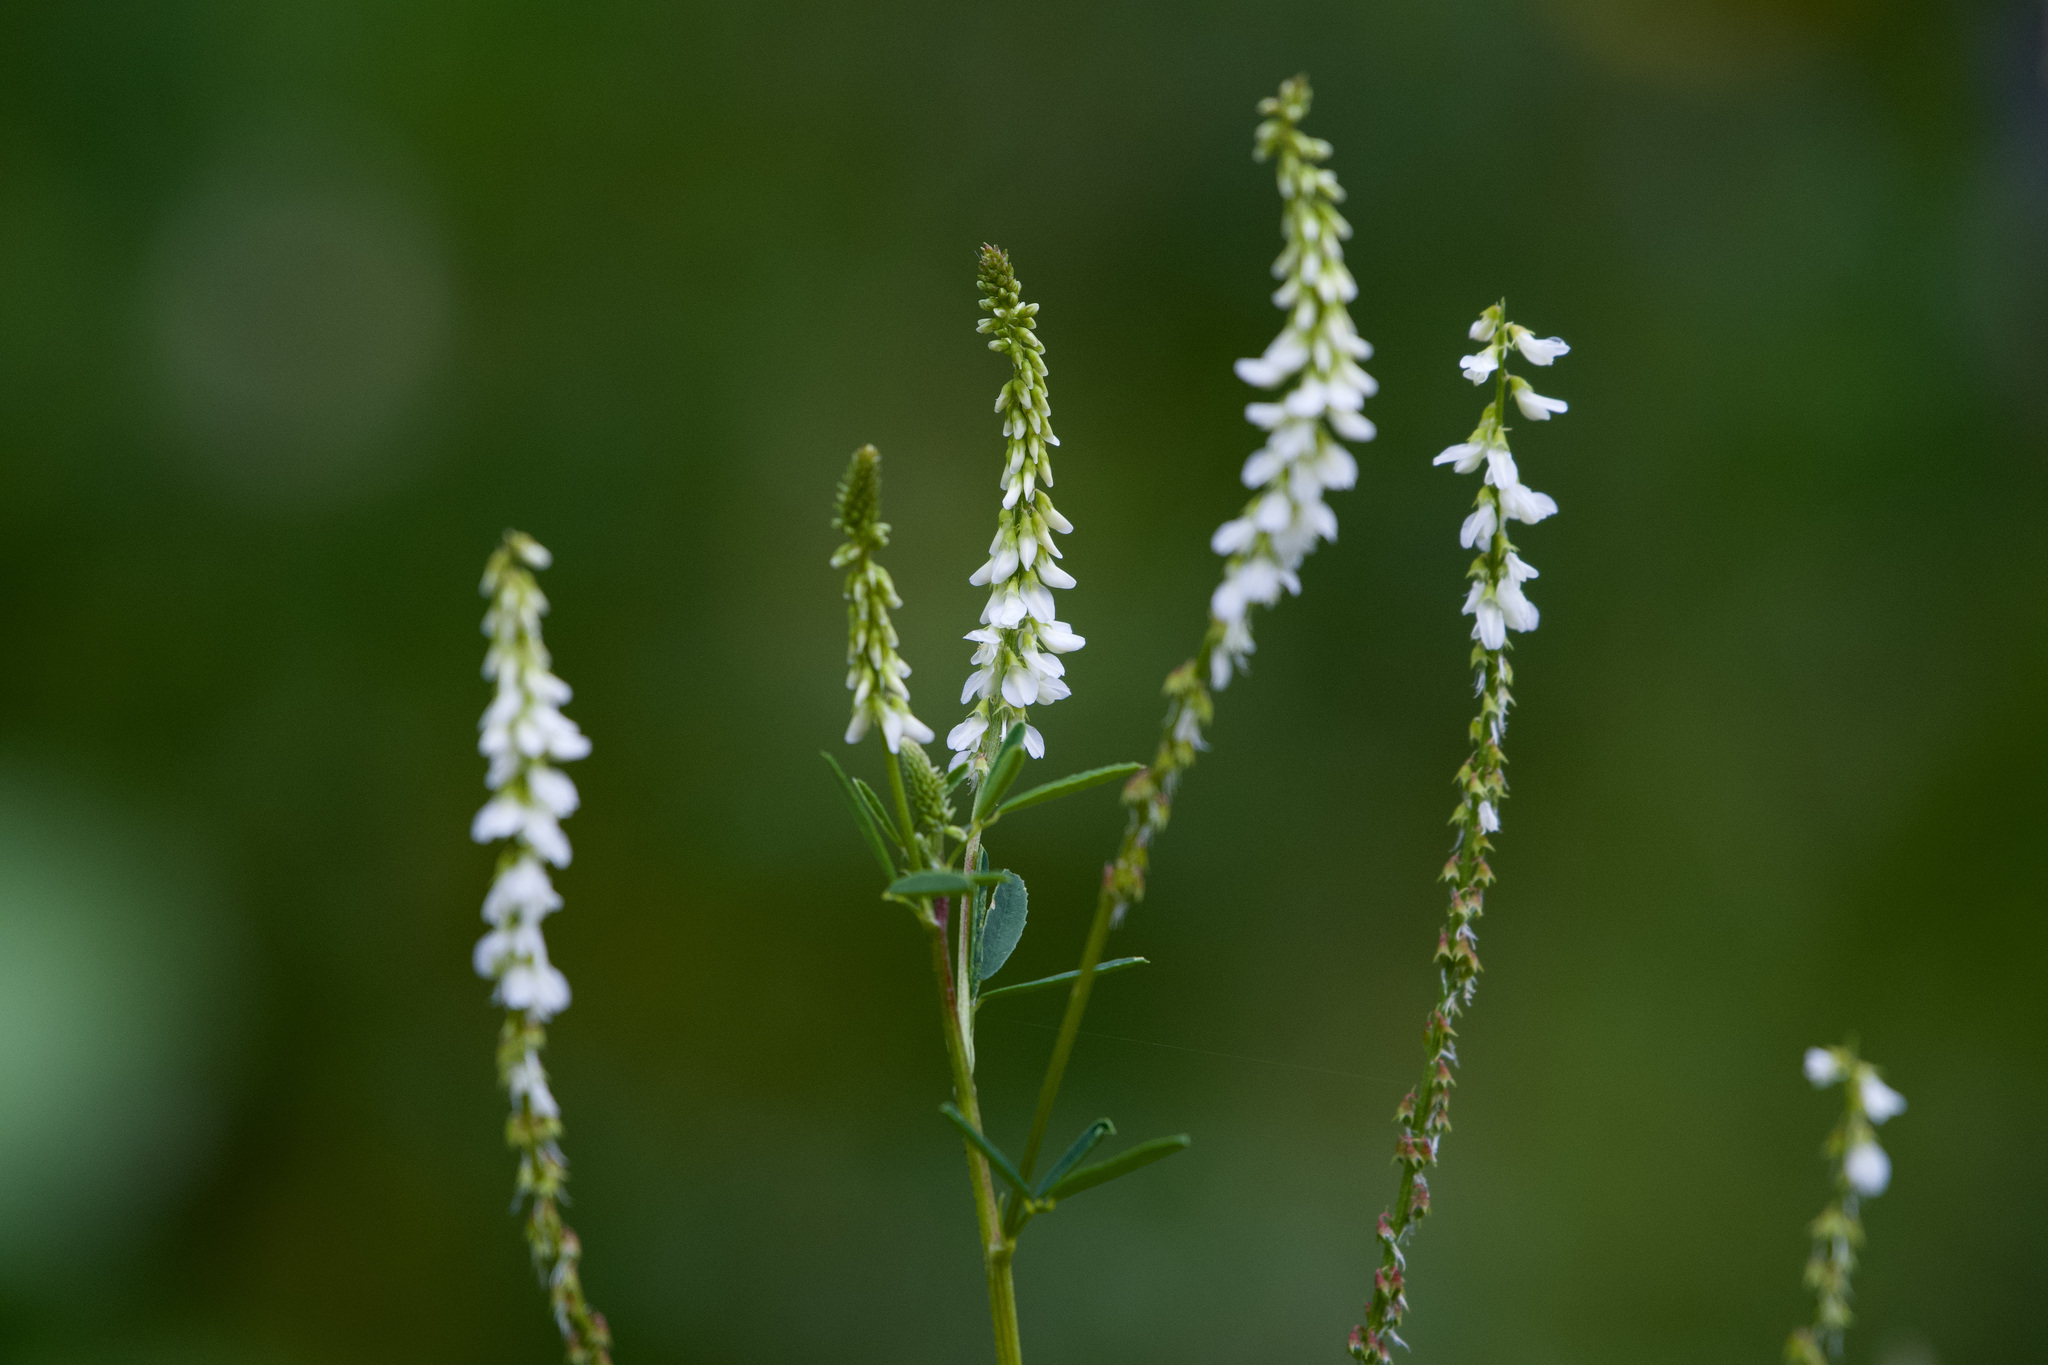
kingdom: Plantae
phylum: Tracheophyta
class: Magnoliopsida
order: Fabales
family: Fabaceae
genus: Melilotus
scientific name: Melilotus albus
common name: White melilot
